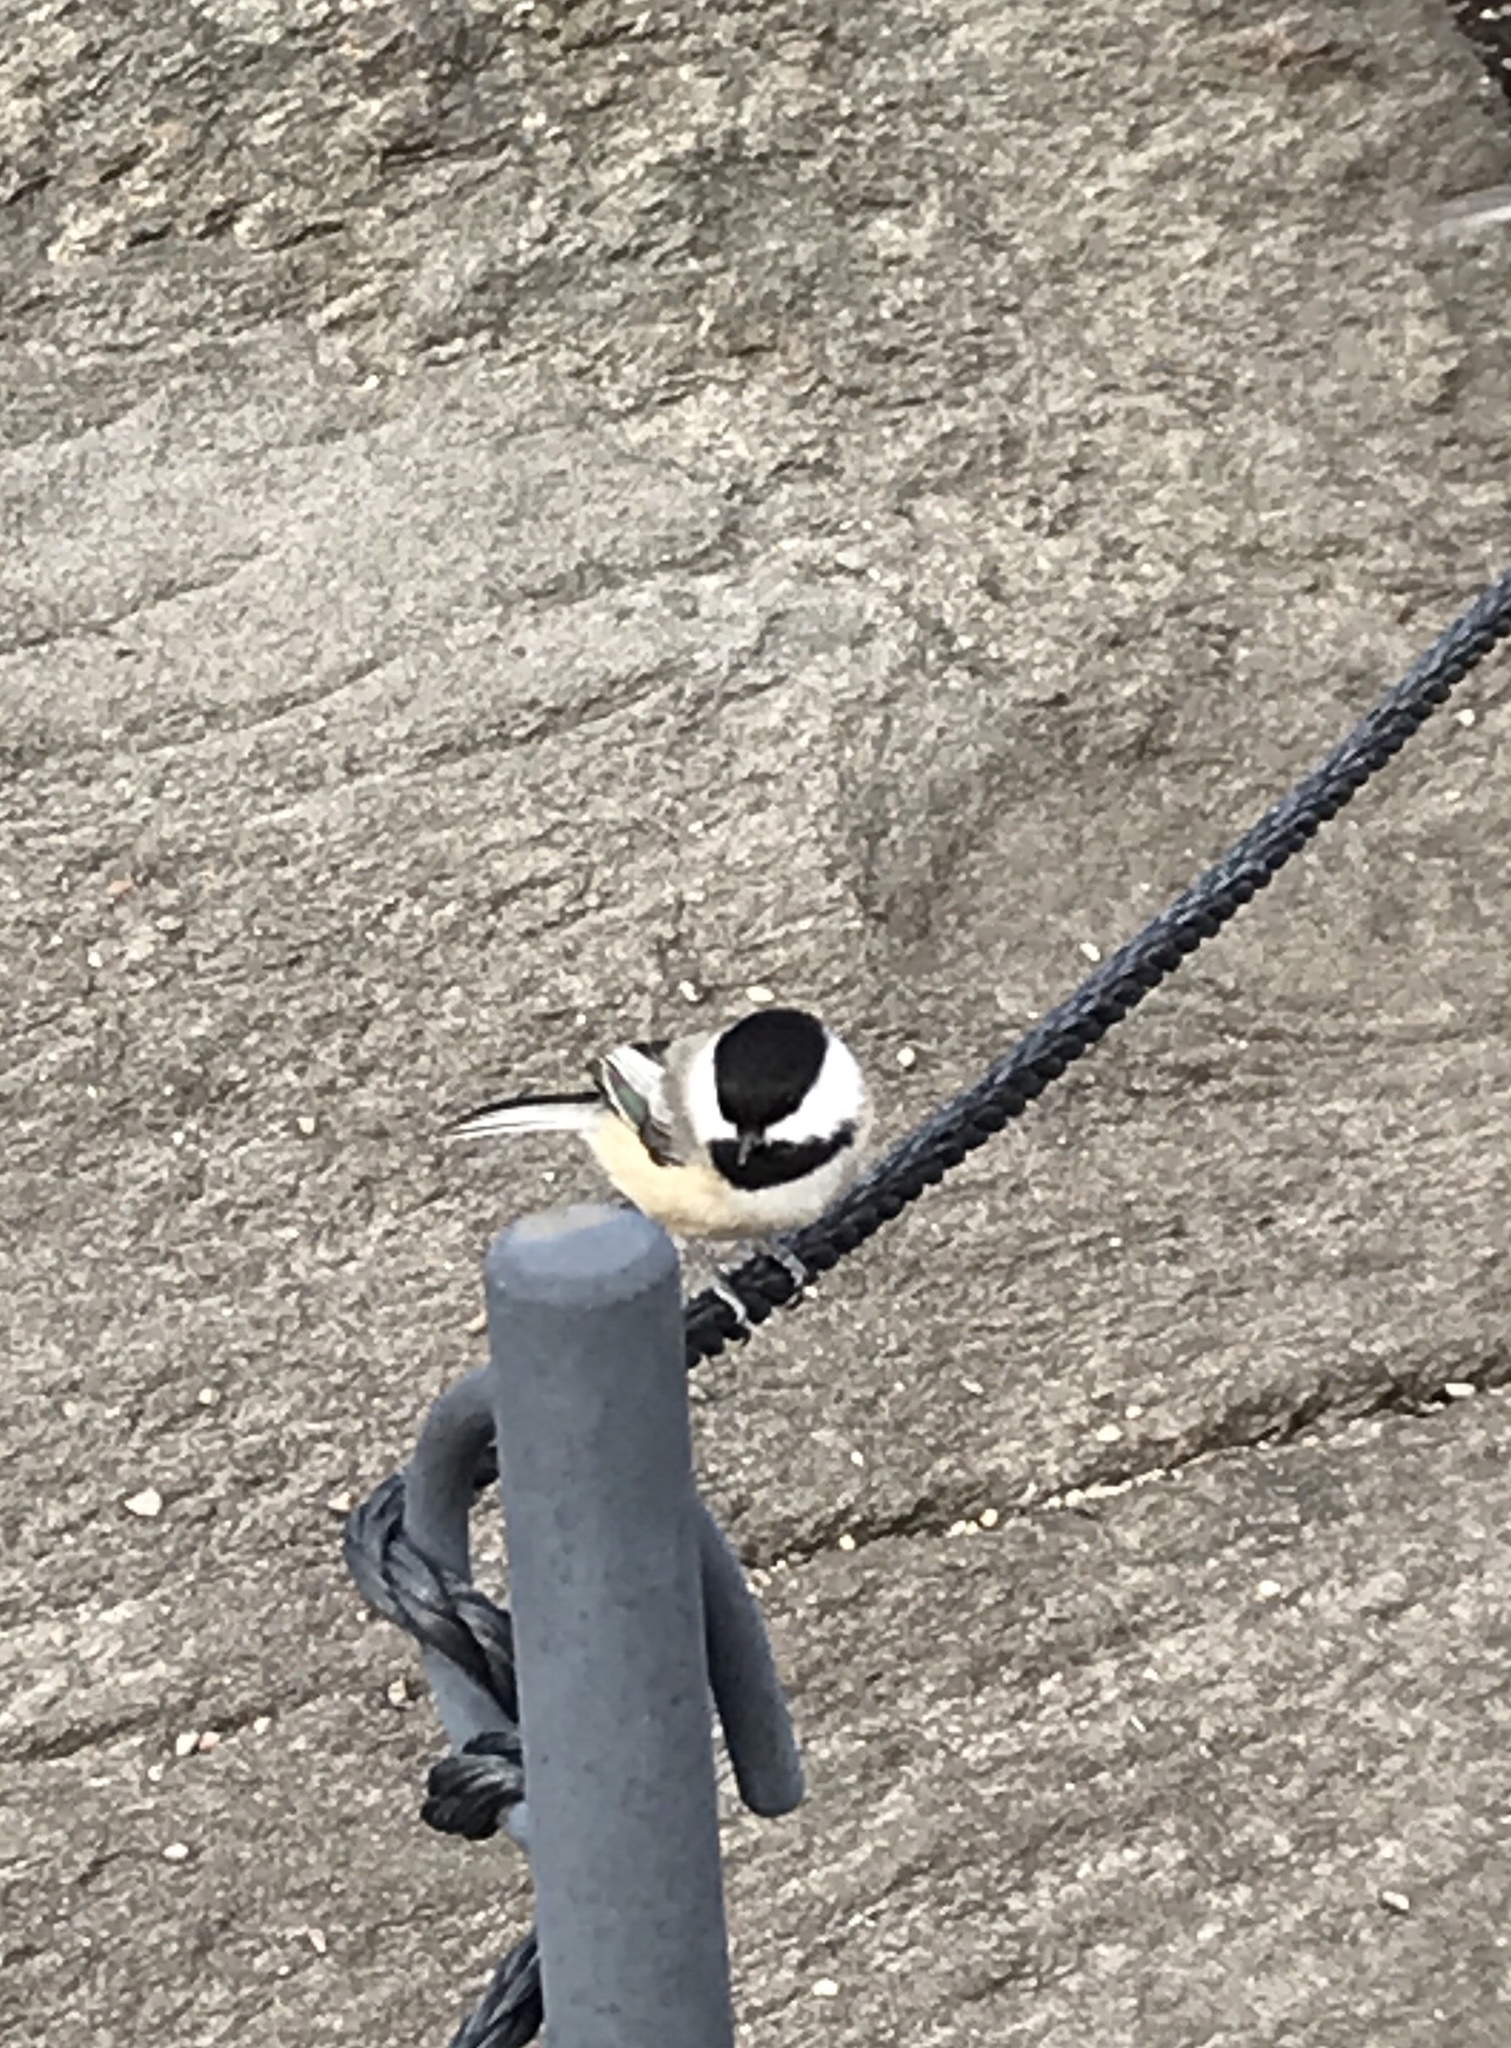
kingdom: Animalia
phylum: Chordata
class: Aves
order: Passeriformes
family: Paridae
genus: Poecile
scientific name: Poecile atricapillus
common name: Black-capped chickadee
